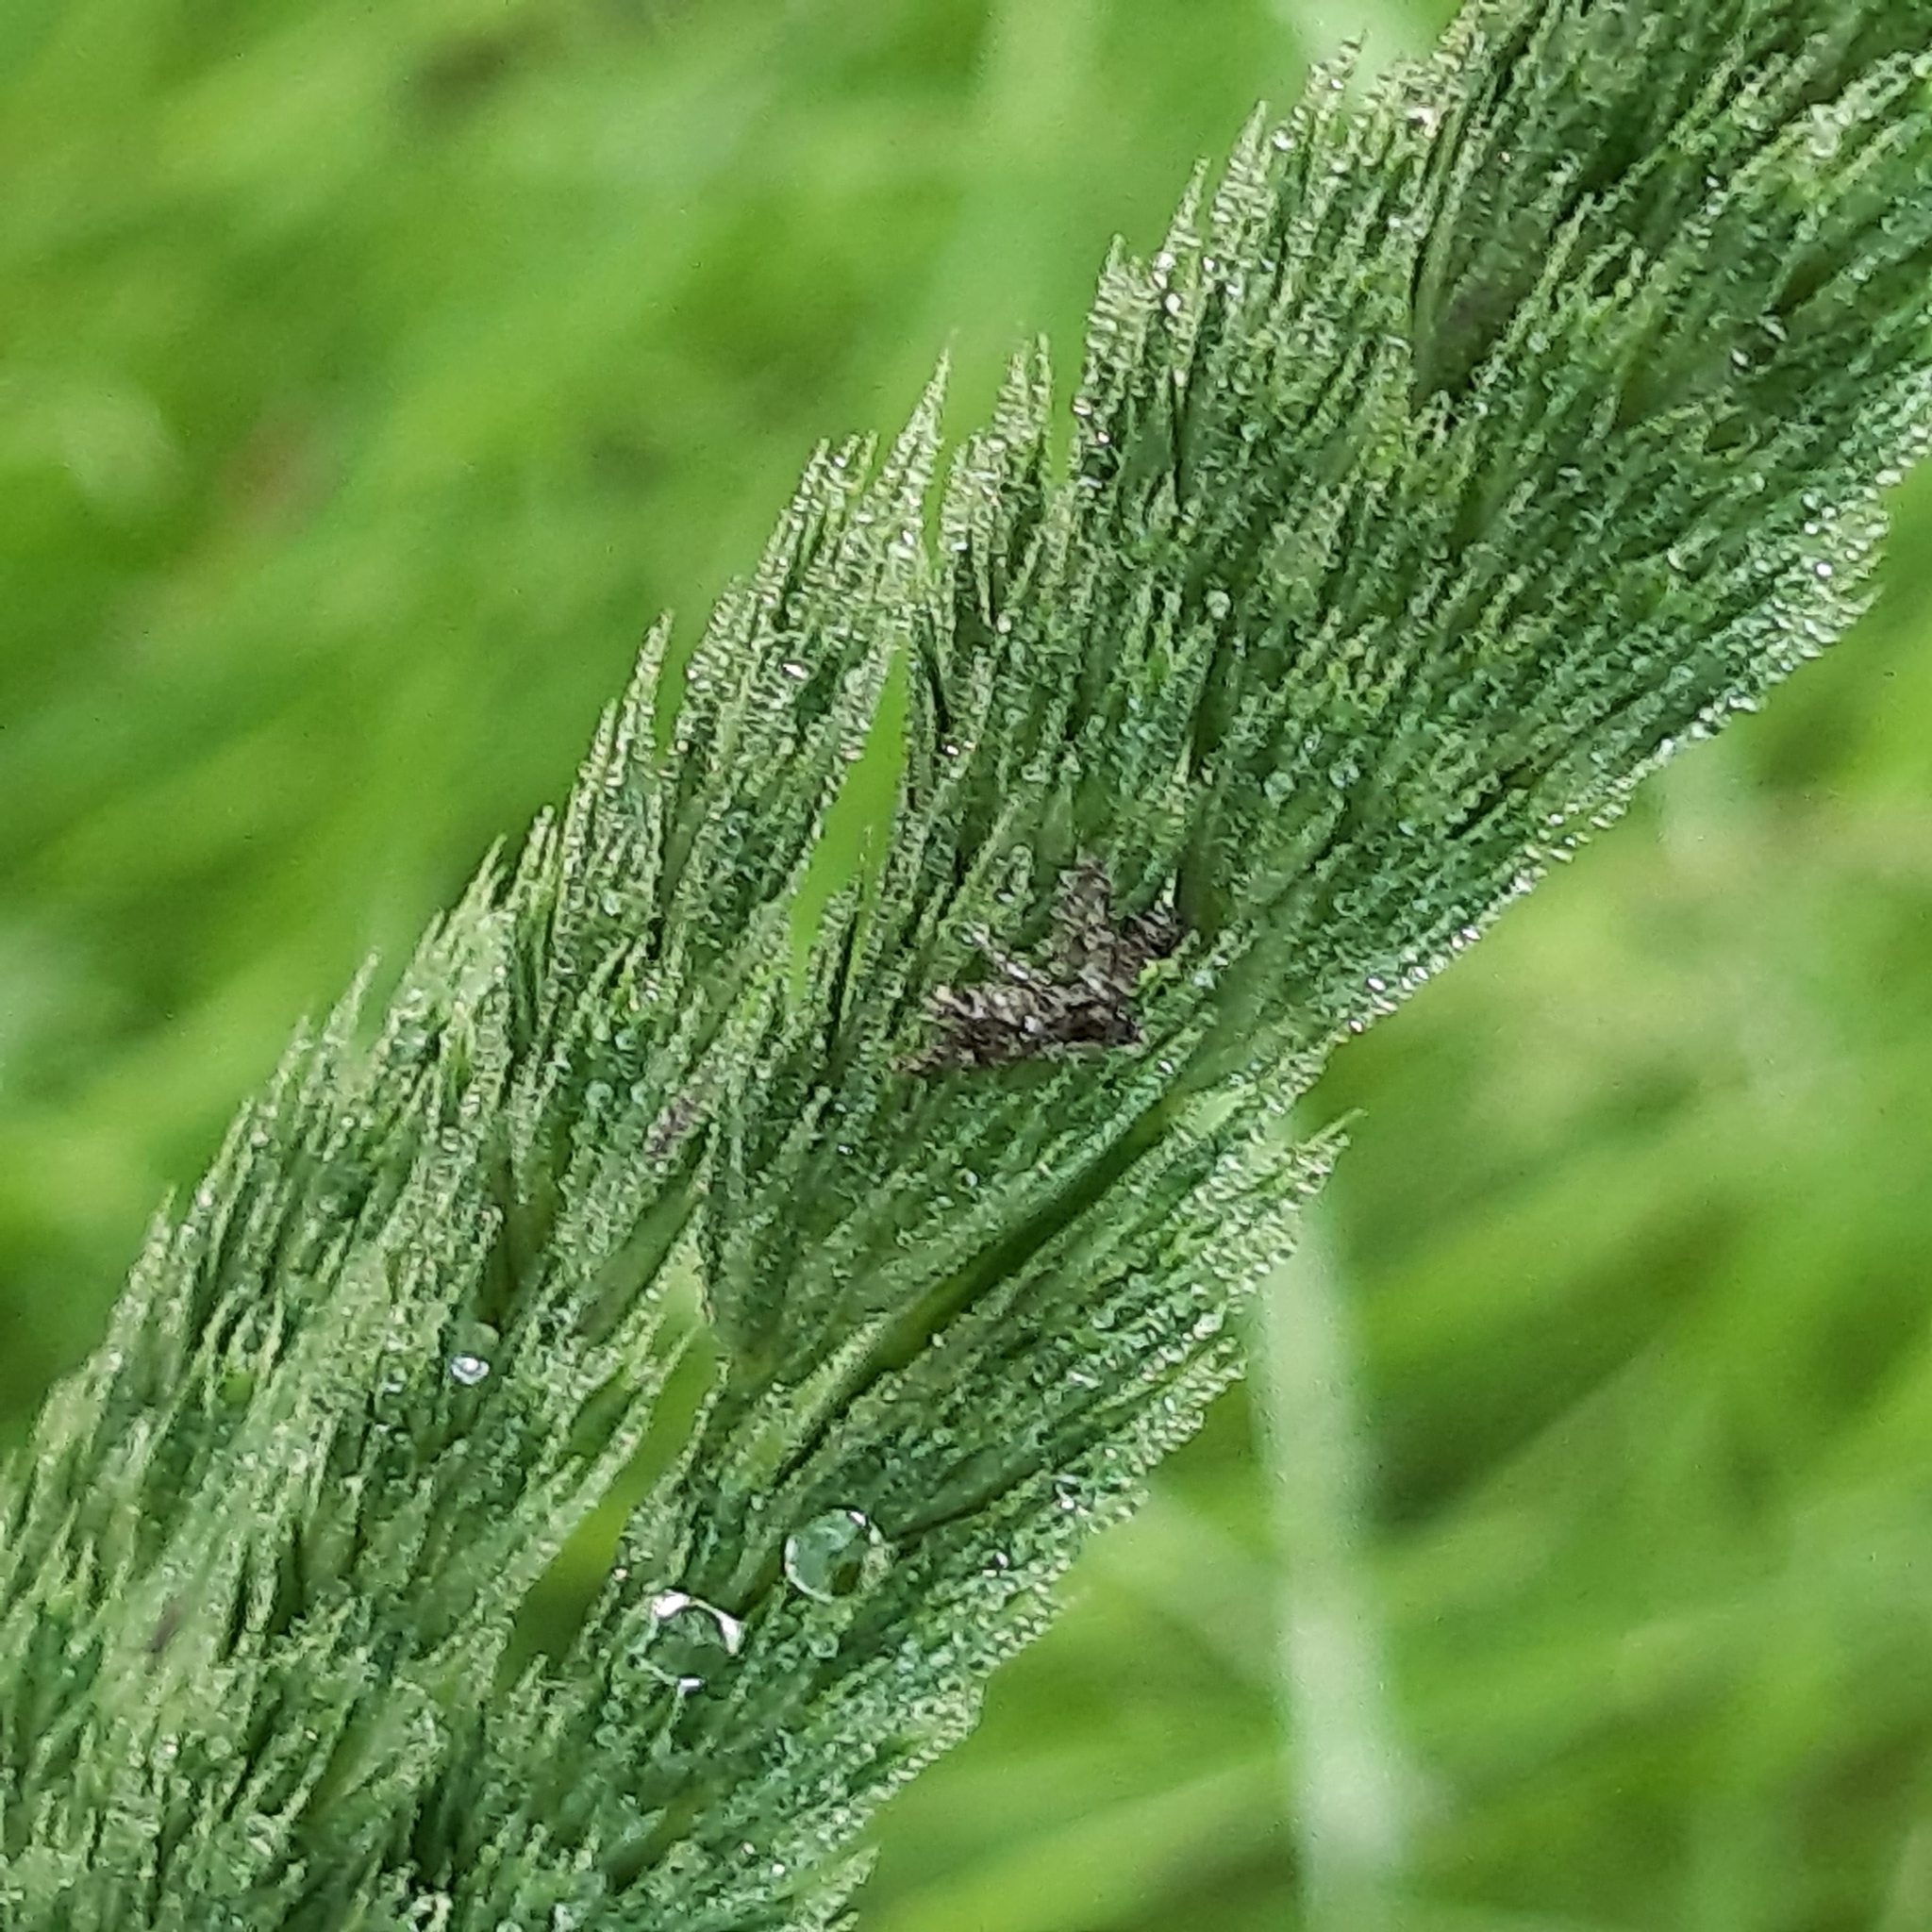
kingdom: Plantae
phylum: Tracheophyta
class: Liliopsida
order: Poales
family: Poaceae
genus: Dactylis
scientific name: Dactylis glomerata
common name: Orchardgrass
